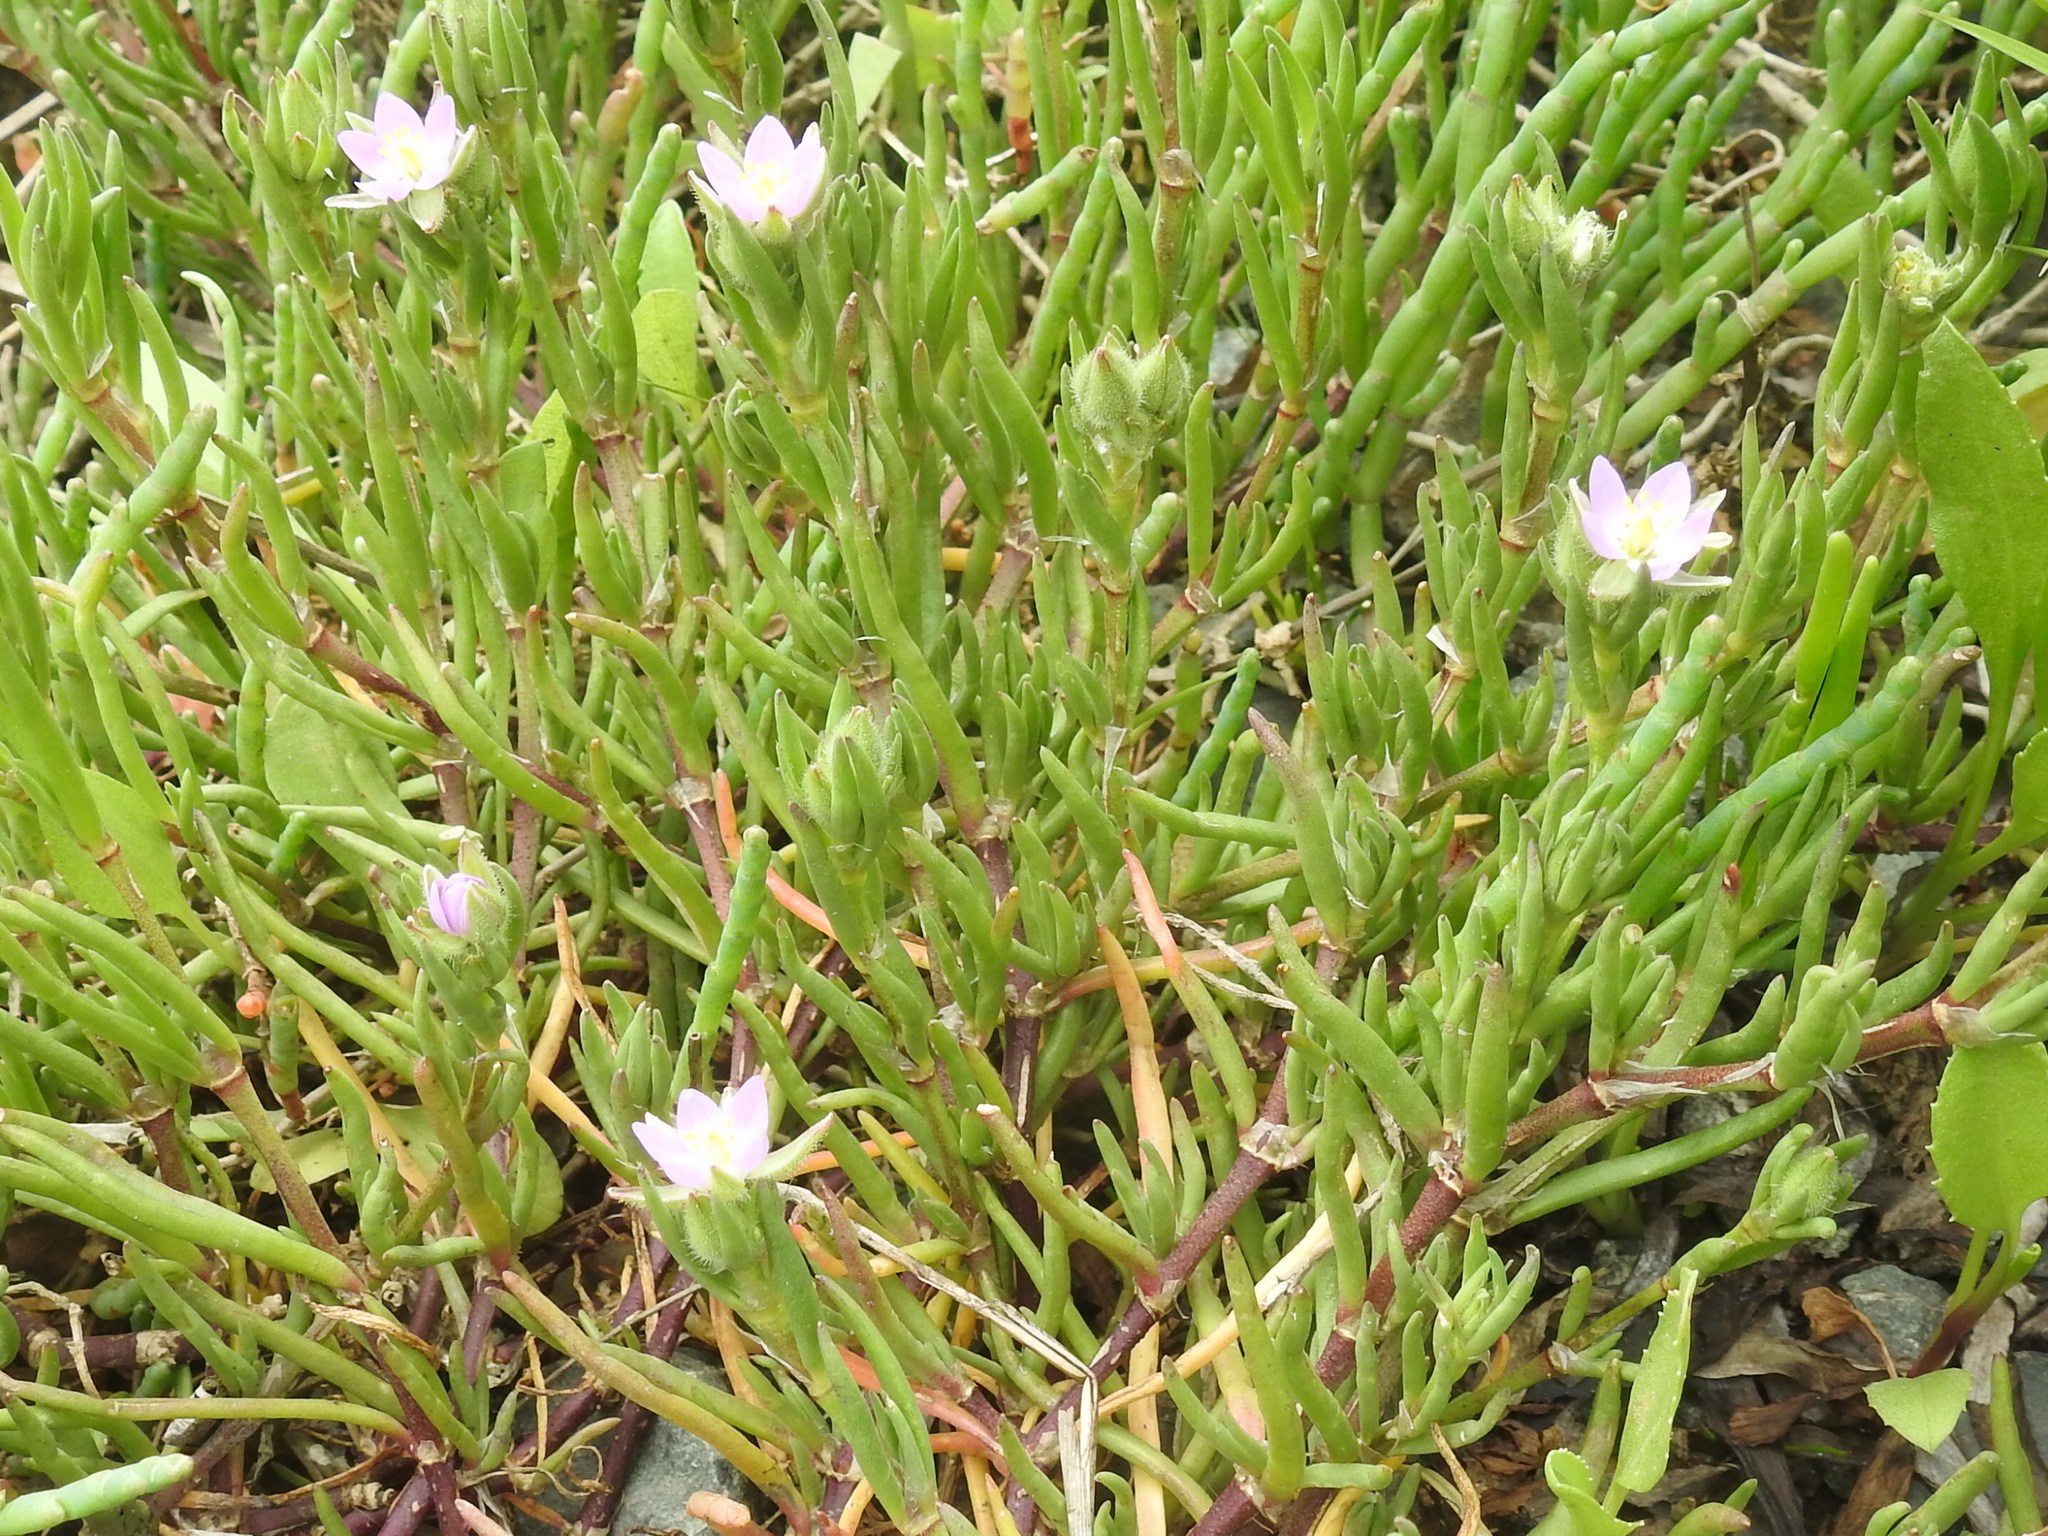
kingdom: Plantae
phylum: Tracheophyta
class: Magnoliopsida
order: Caryophyllales
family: Caryophyllaceae
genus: Spergularia
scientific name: Spergularia rubra
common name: Red sand-spurrey
